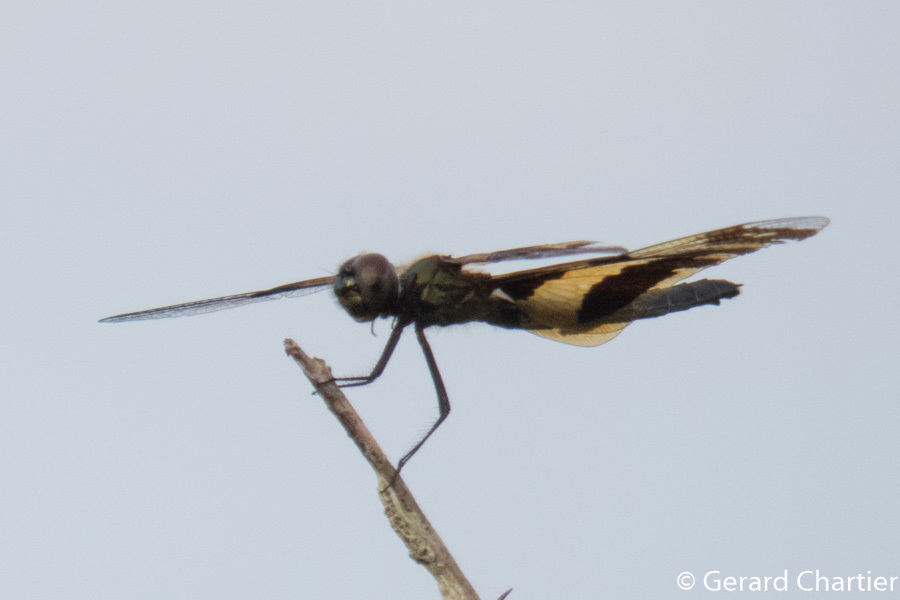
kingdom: Animalia
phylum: Arthropoda
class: Insecta
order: Odonata
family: Libellulidae
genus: Rhyothemis
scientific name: Rhyothemis variegata
